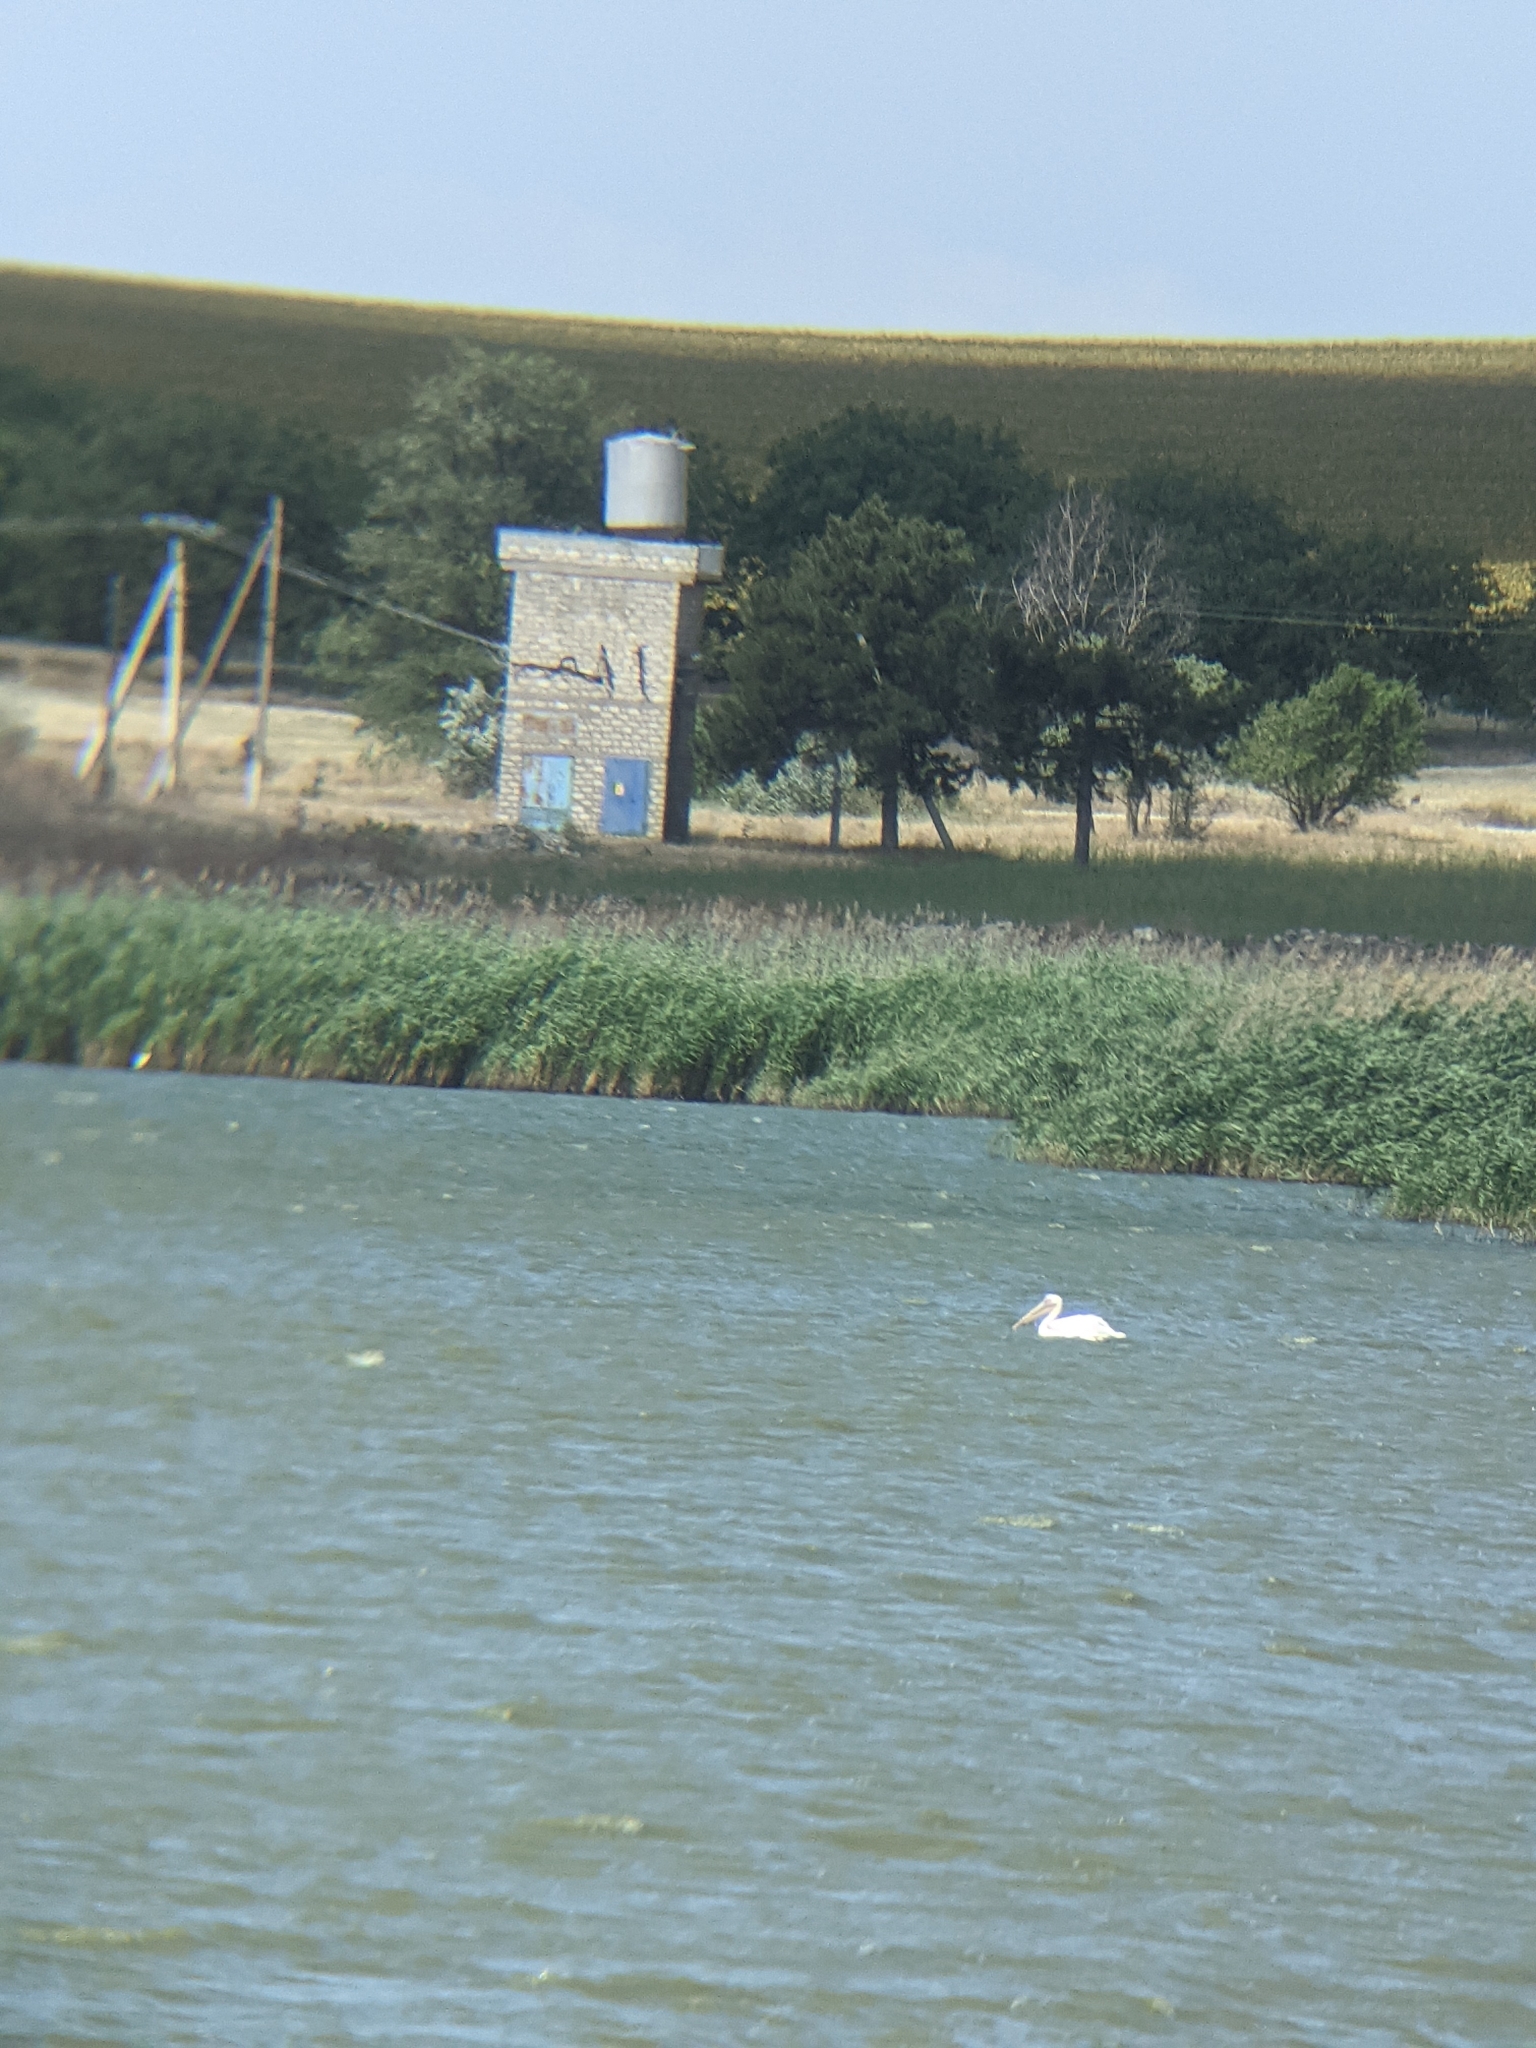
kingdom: Animalia
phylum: Chordata
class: Aves
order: Pelecaniformes
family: Pelecanidae
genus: Pelecanus
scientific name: Pelecanus onocrotalus
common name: Great white pelican
